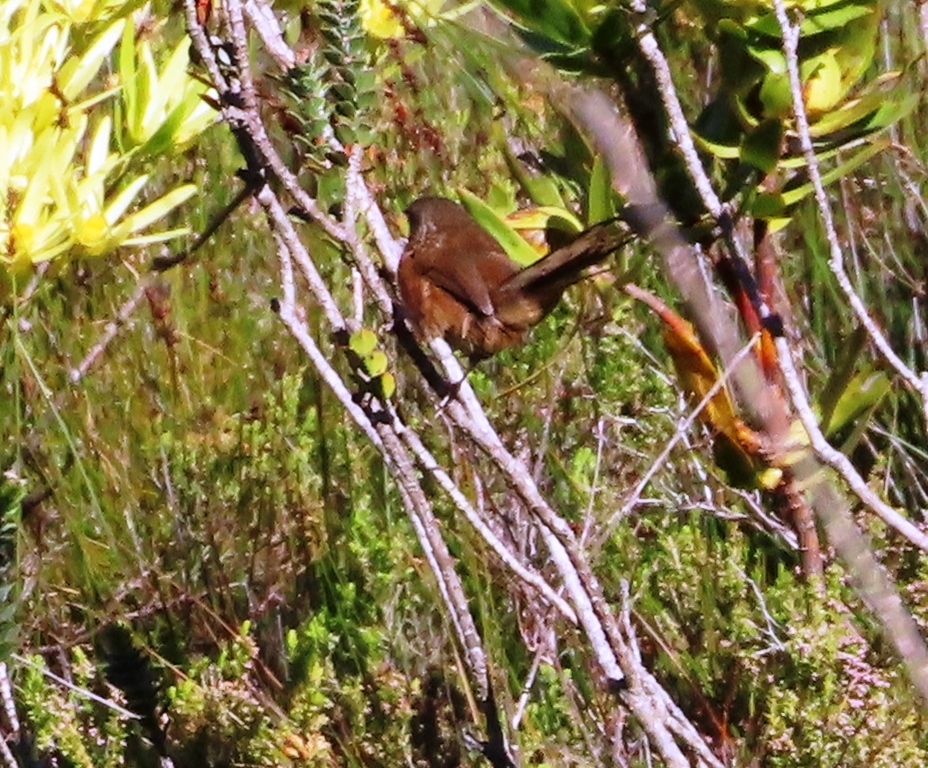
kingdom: Animalia
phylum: Chordata
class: Aves
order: Passeriformes
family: Macrosphenidae
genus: Cryptillas
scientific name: Cryptillas victorini
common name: Victorin's warbler
